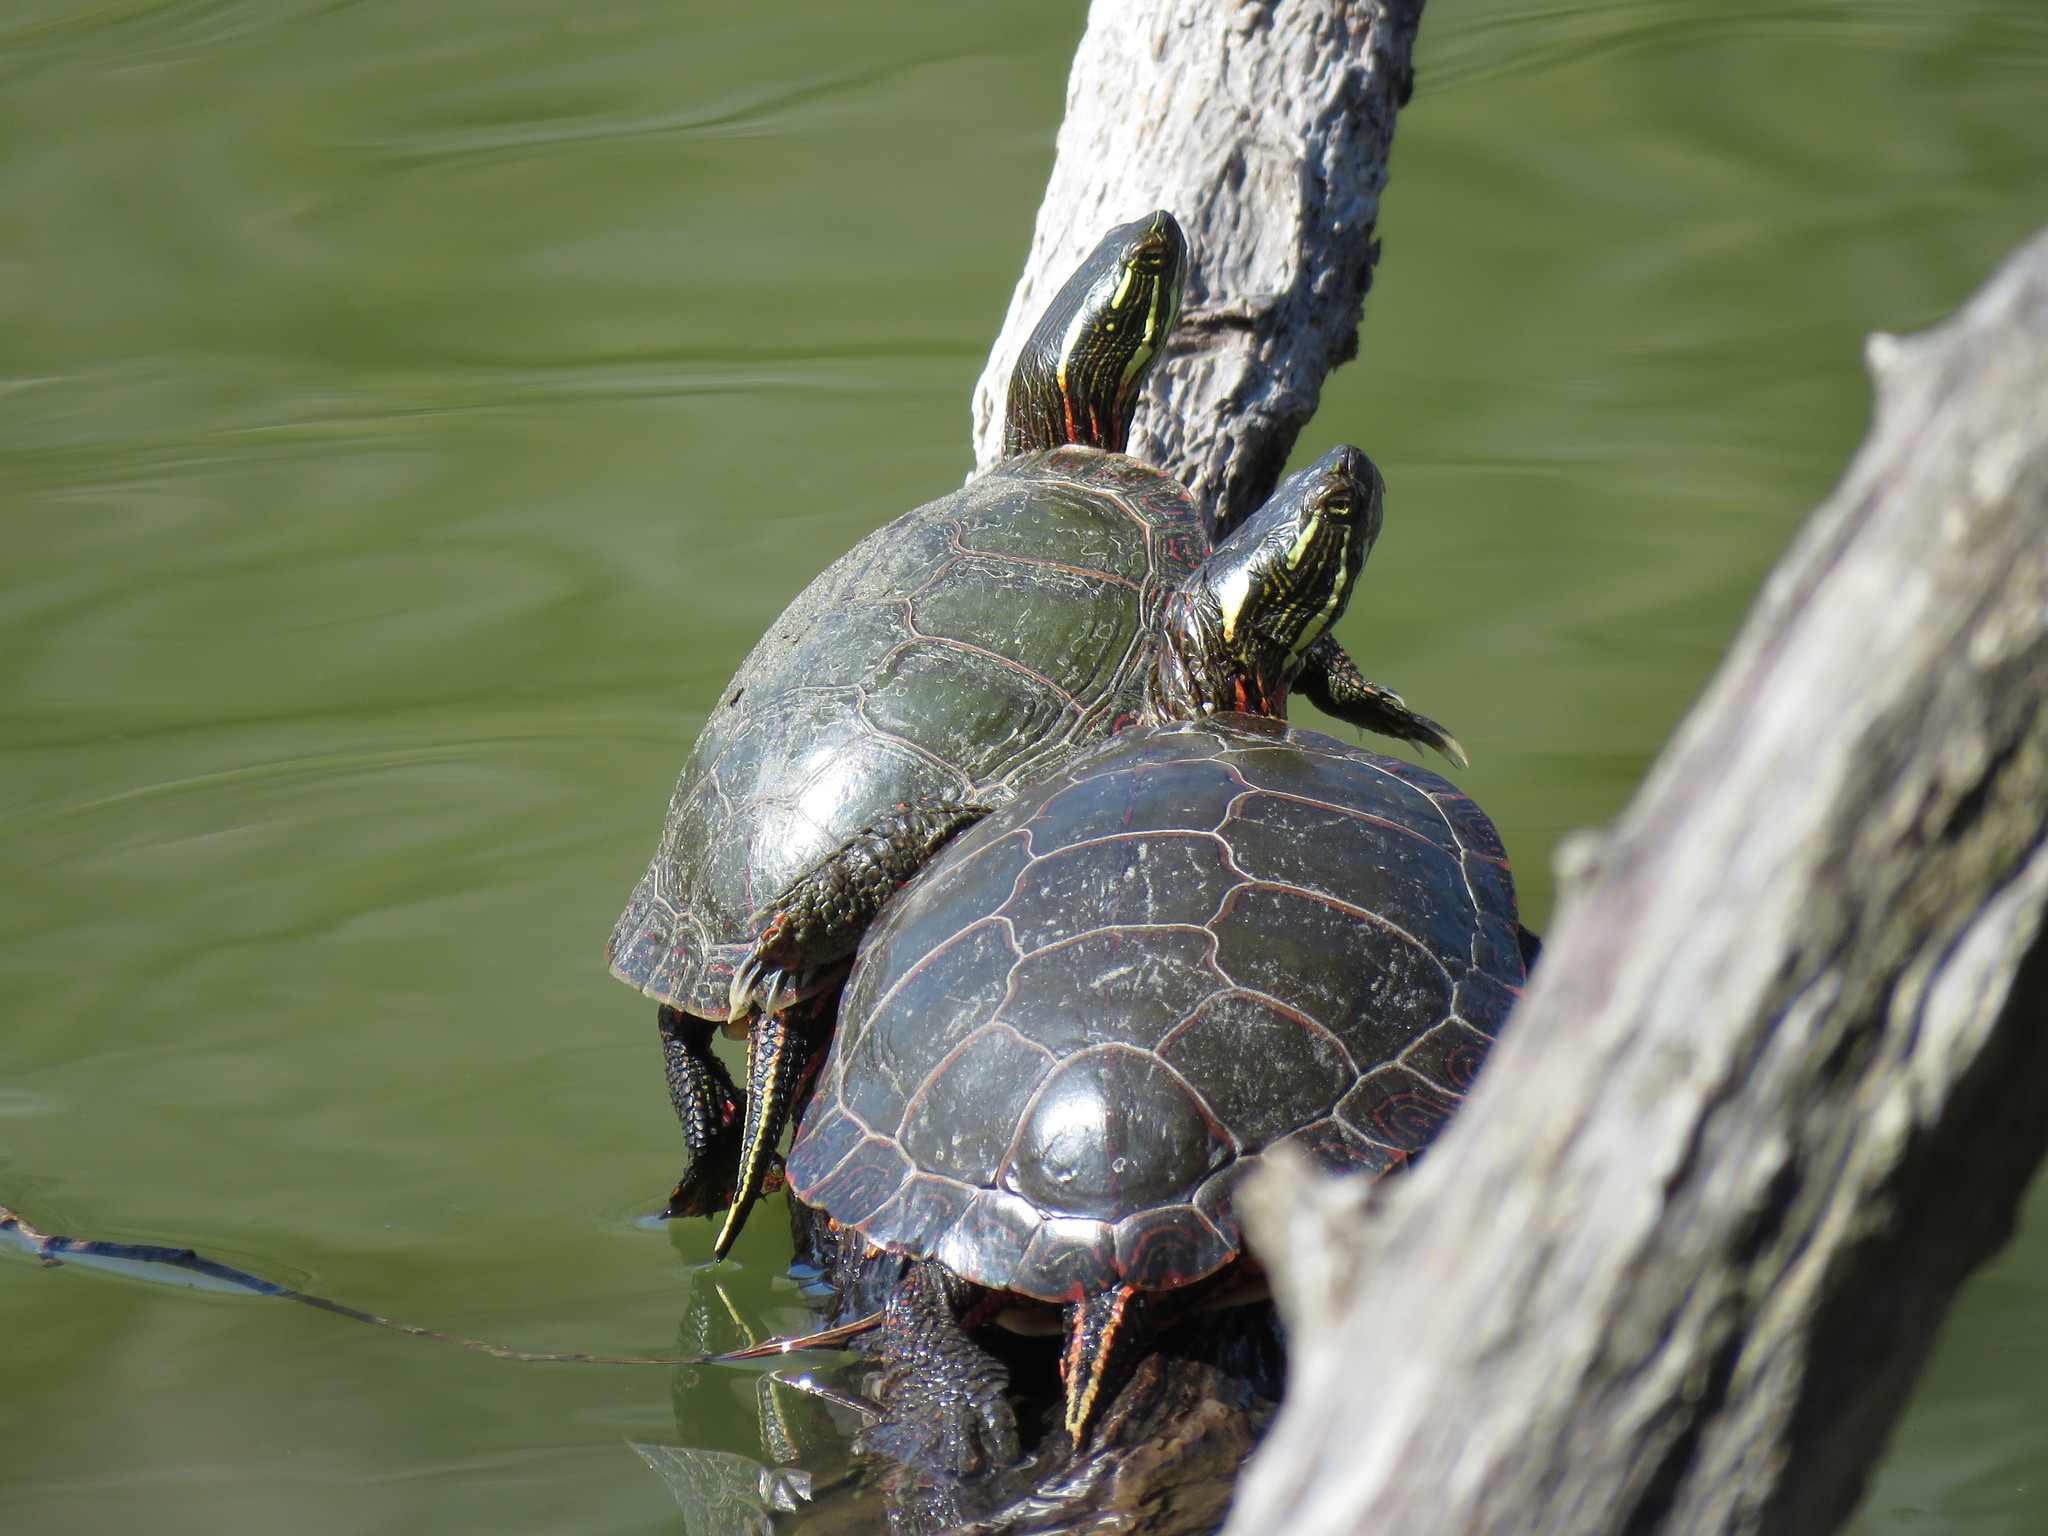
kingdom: Animalia
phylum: Chordata
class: Testudines
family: Emydidae
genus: Chrysemys
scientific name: Chrysemys picta
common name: Painted turtle
